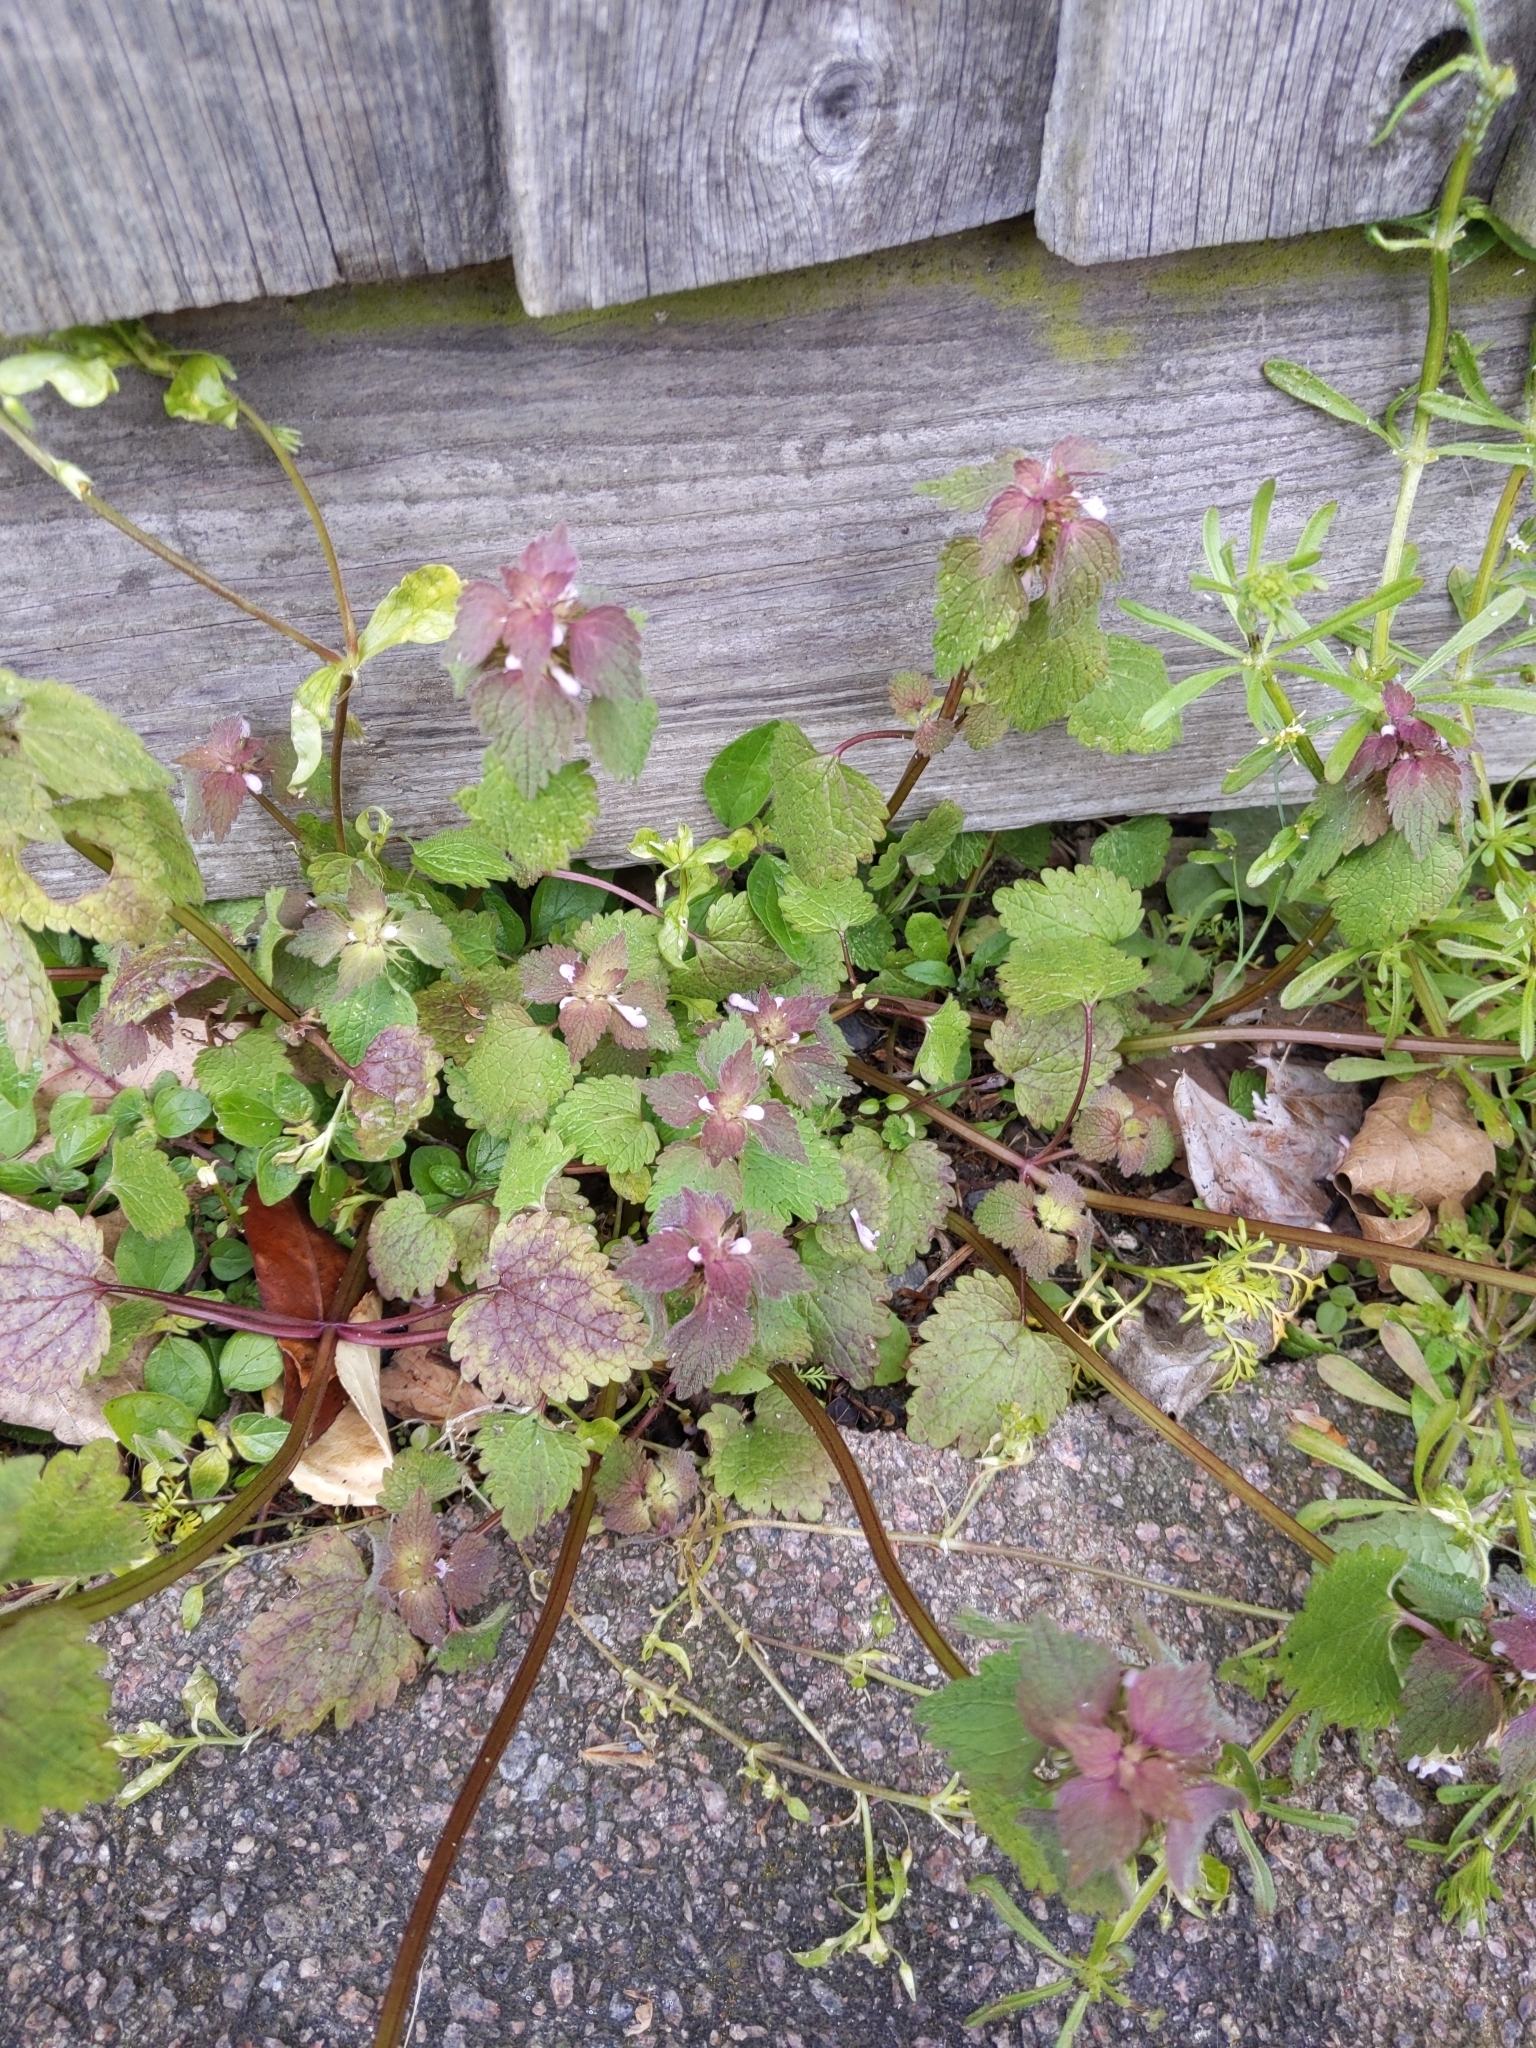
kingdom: Plantae
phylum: Tracheophyta
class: Magnoliopsida
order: Lamiales
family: Lamiaceae
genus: Lamium
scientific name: Lamium purpureum
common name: Red dead-nettle
